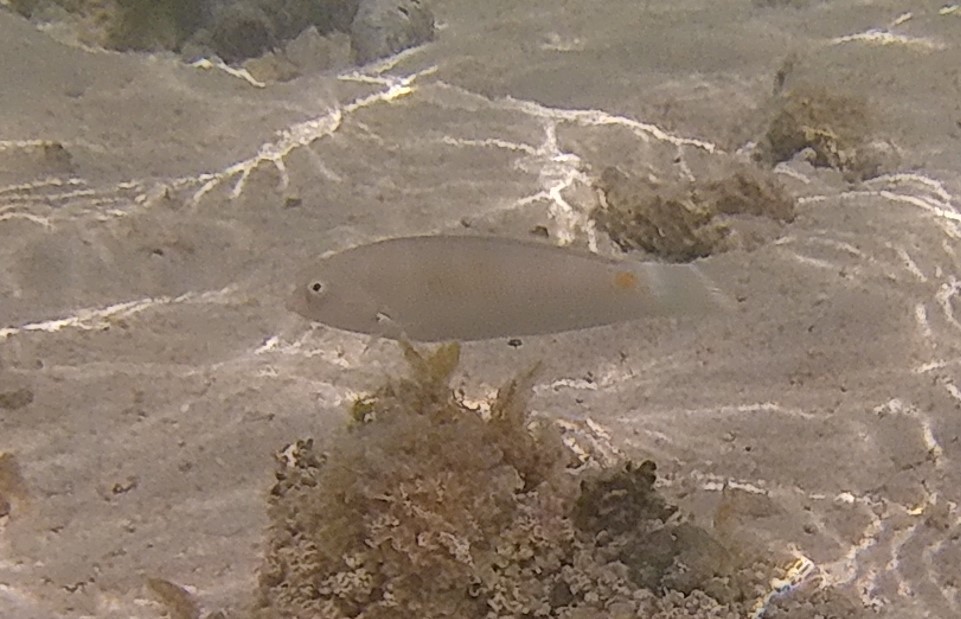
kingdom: Animalia
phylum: Chordata
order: Perciformes
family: Labridae
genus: Halichoeres
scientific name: Halichoeres trimaculatus
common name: Three-spot wrasse
